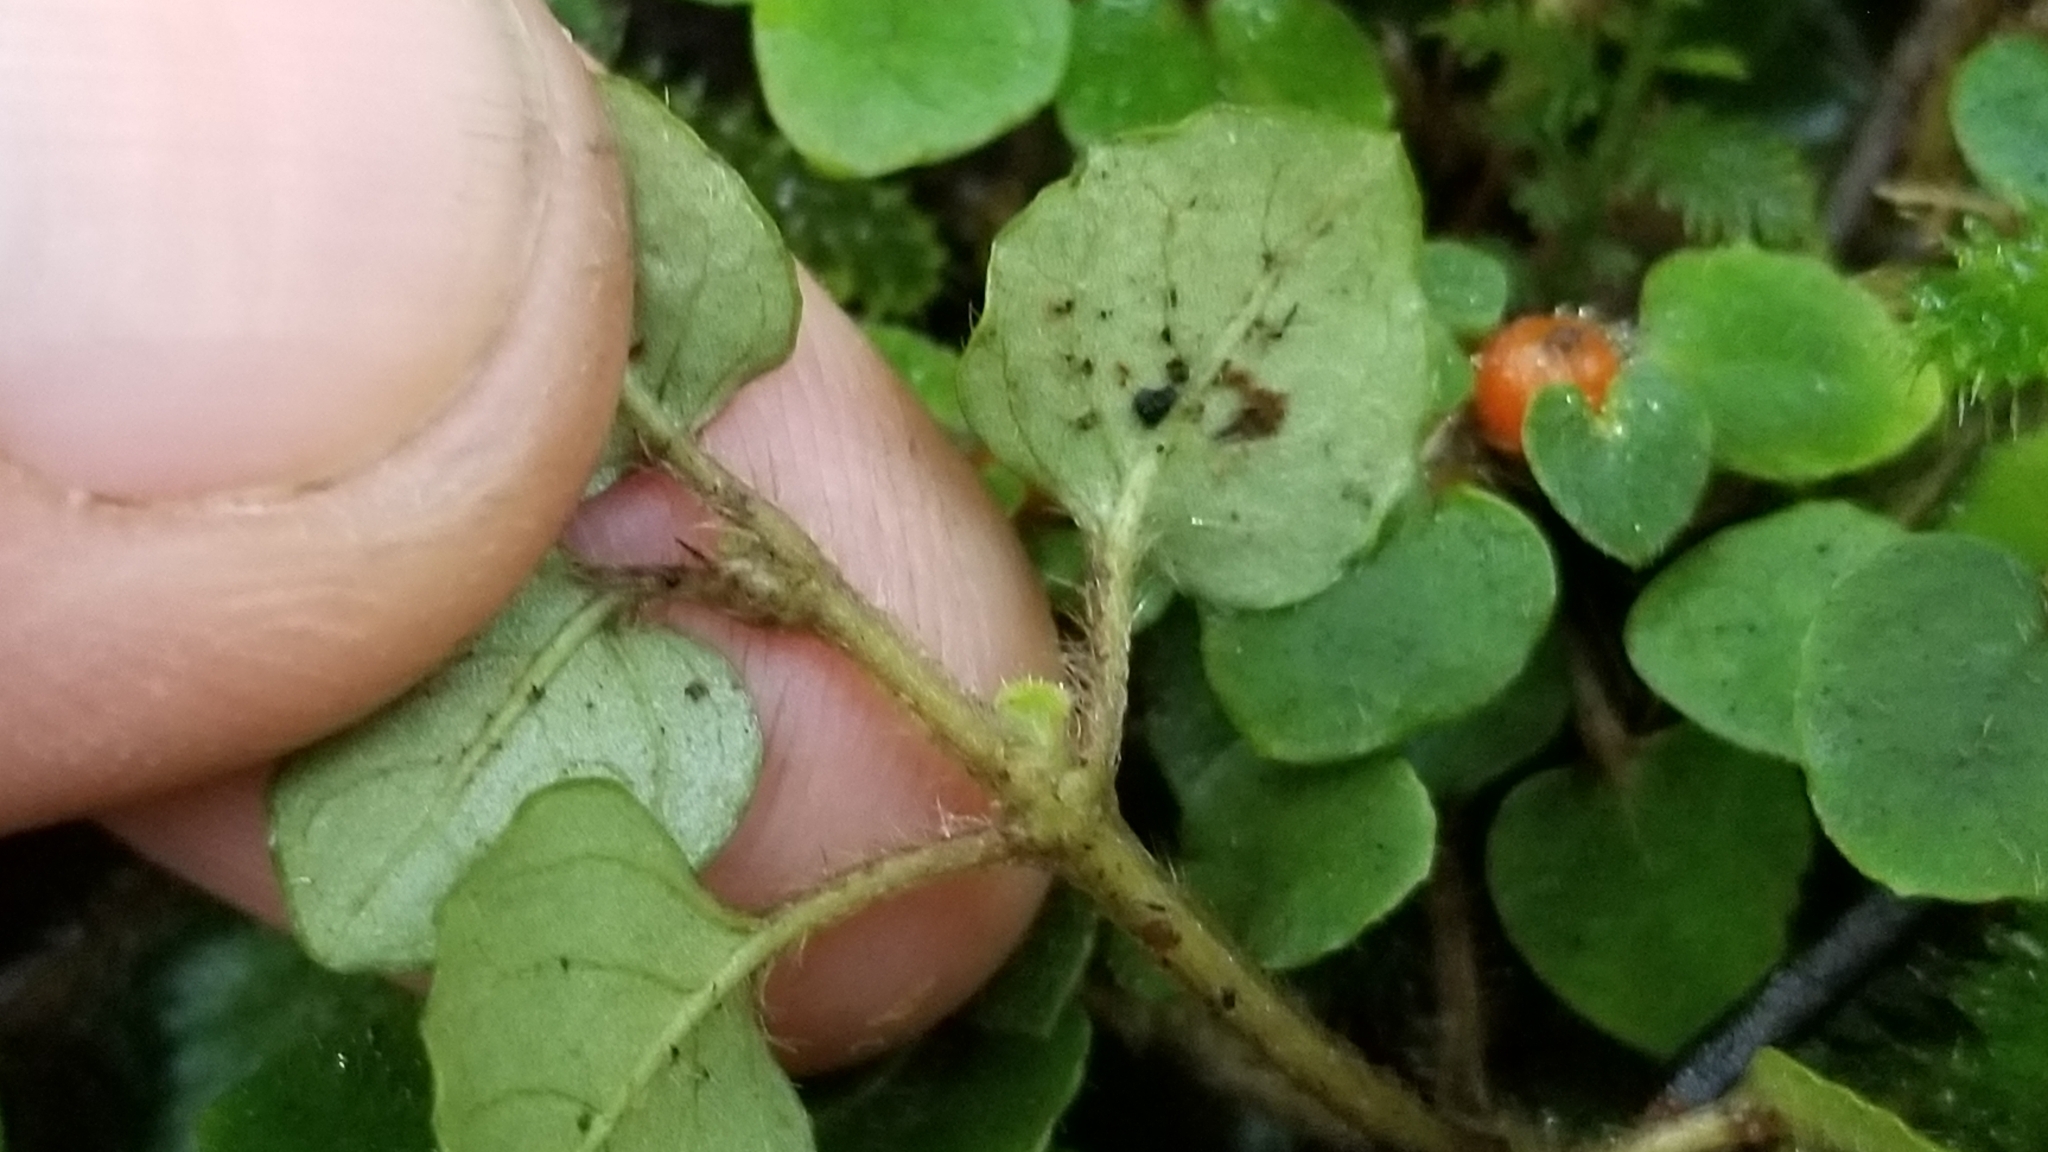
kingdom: Plantae
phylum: Tracheophyta
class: Magnoliopsida
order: Gentianales
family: Rubiaceae
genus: Nertera
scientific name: Nertera villosa
